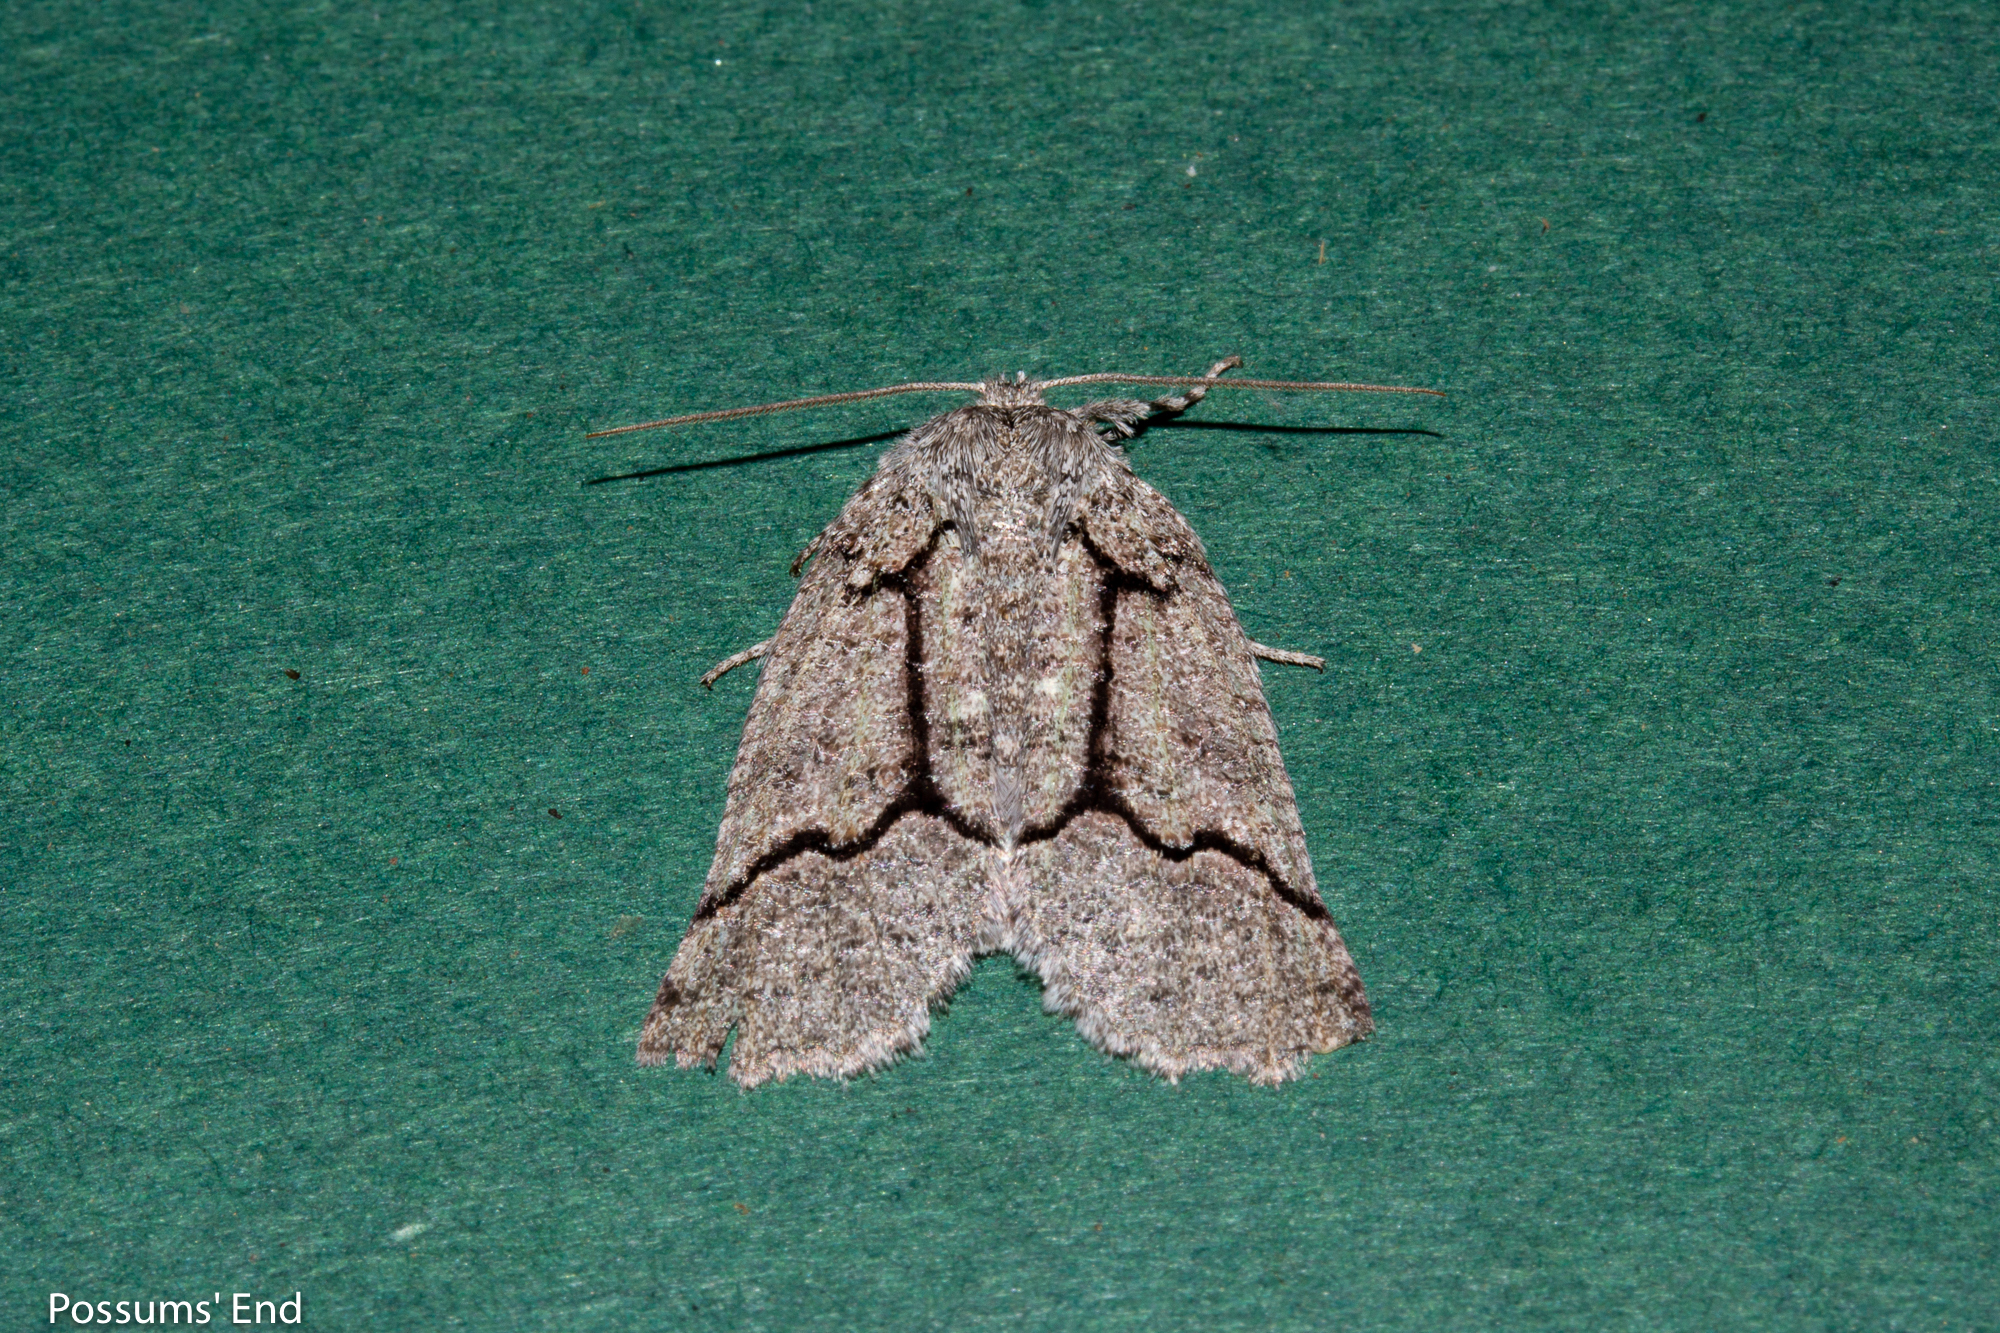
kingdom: Animalia
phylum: Arthropoda
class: Insecta
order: Lepidoptera
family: Geometridae
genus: Declana
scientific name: Declana floccosa
